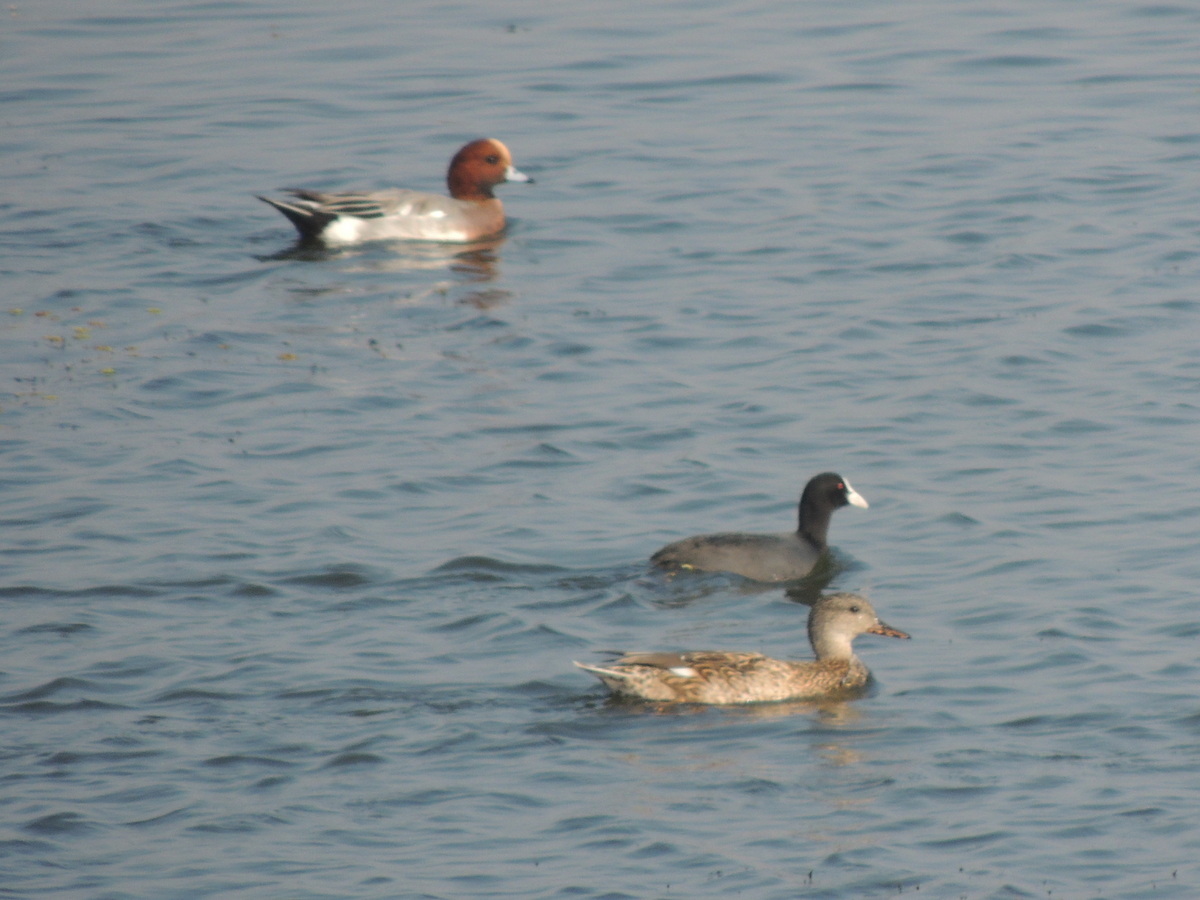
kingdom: Animalia
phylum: Chordata
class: Aves
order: Anseriformes
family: Anatidae
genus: Mareca
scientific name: Mareca penelope
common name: Eurasian wigeon
